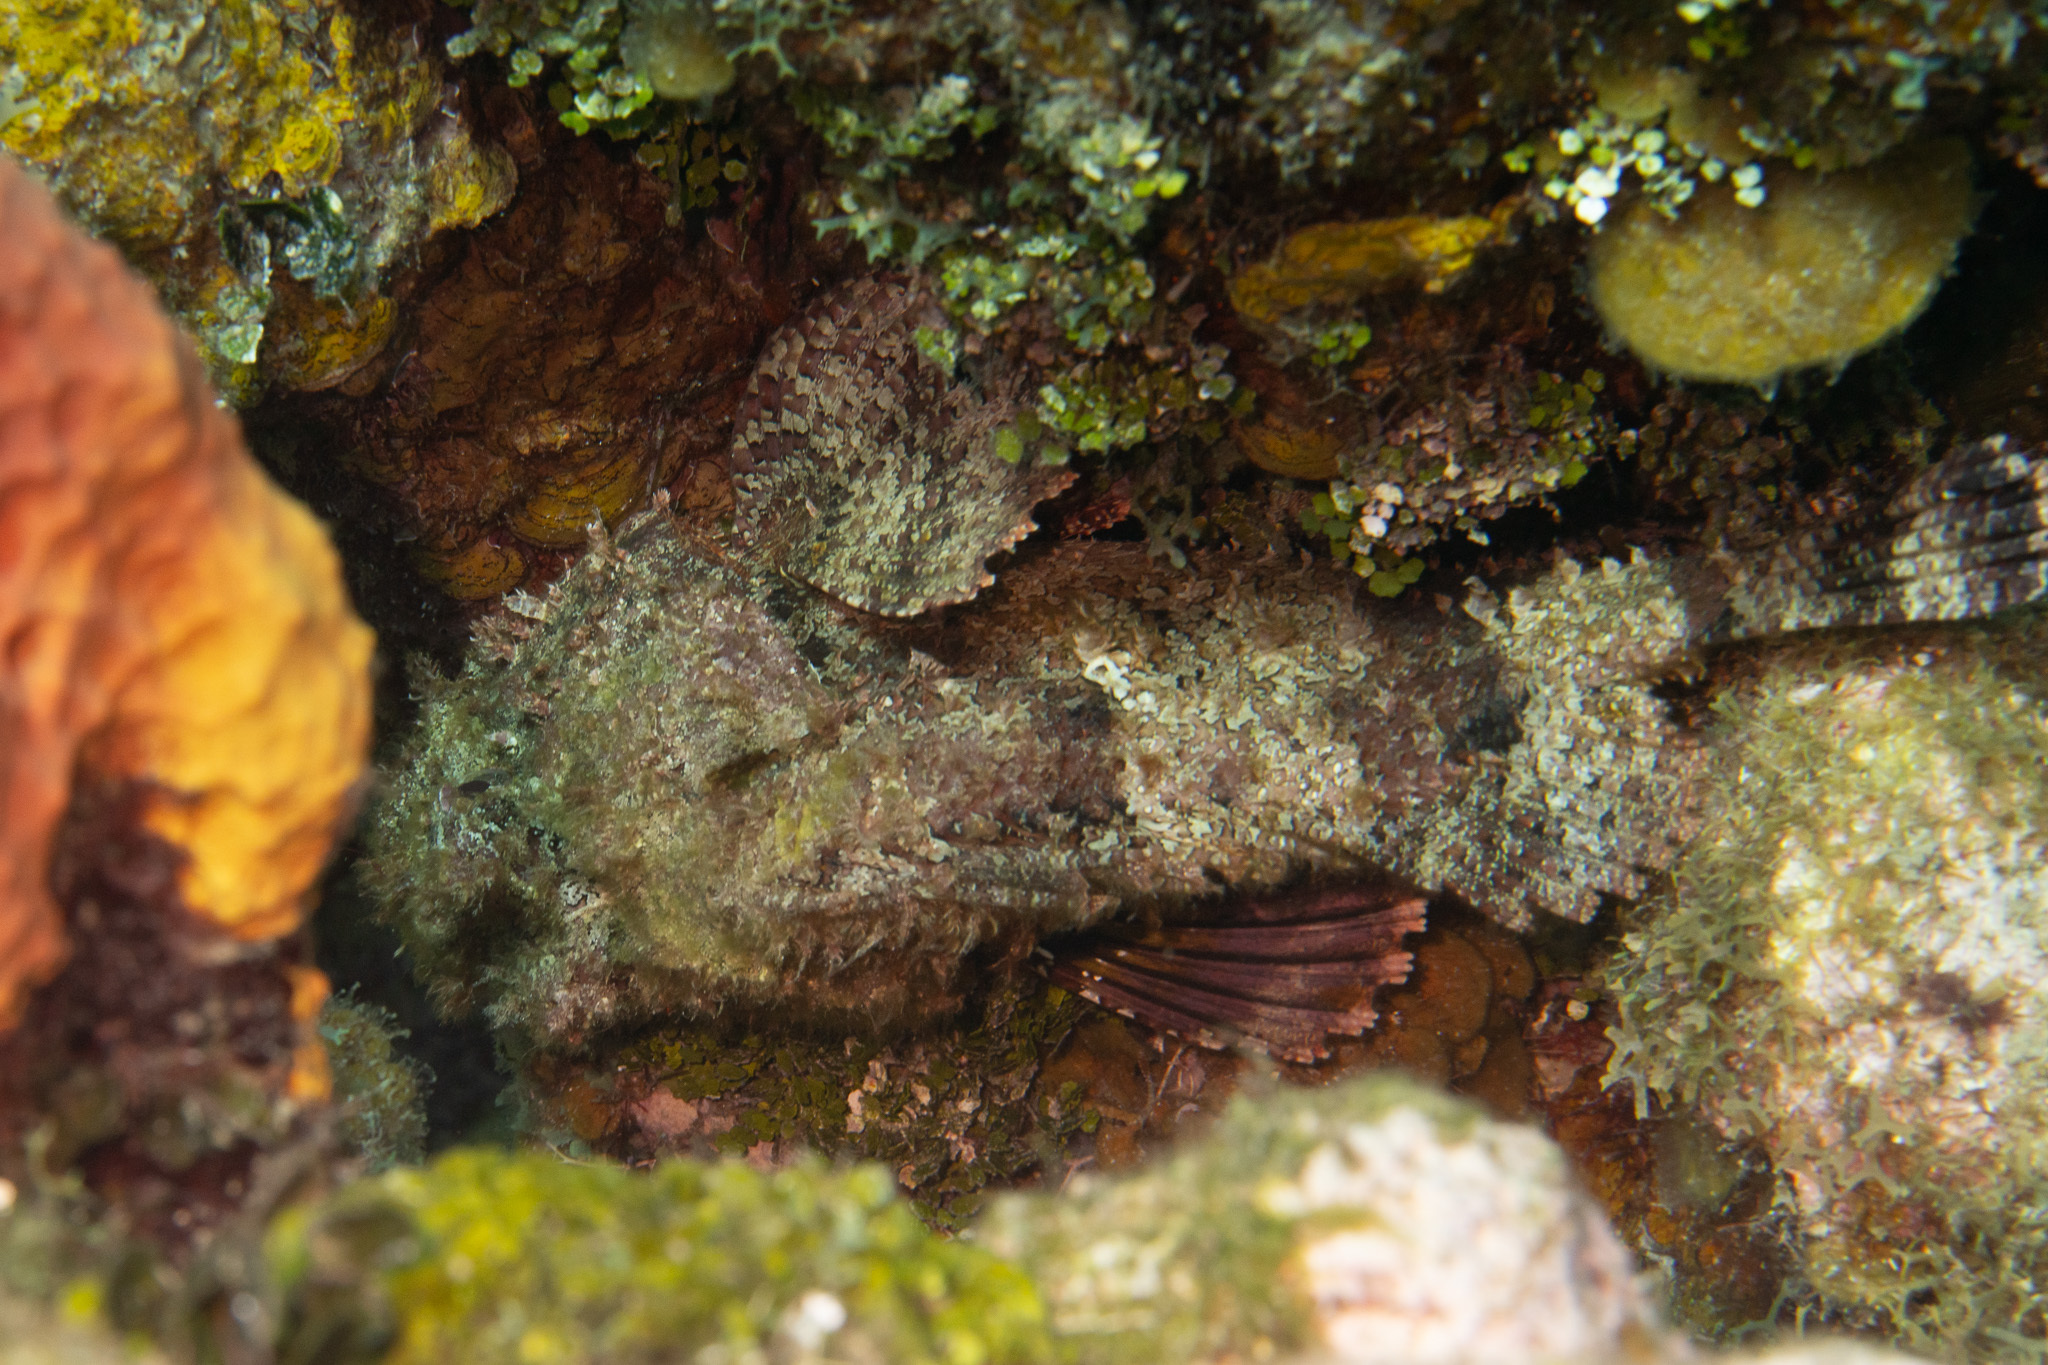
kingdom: Animalia
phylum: Chordata
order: Scorpaeniformes
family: Scorpaenidae
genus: Scorpaena
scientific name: Scorpaena plumieri
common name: Spotted scorpionfish
